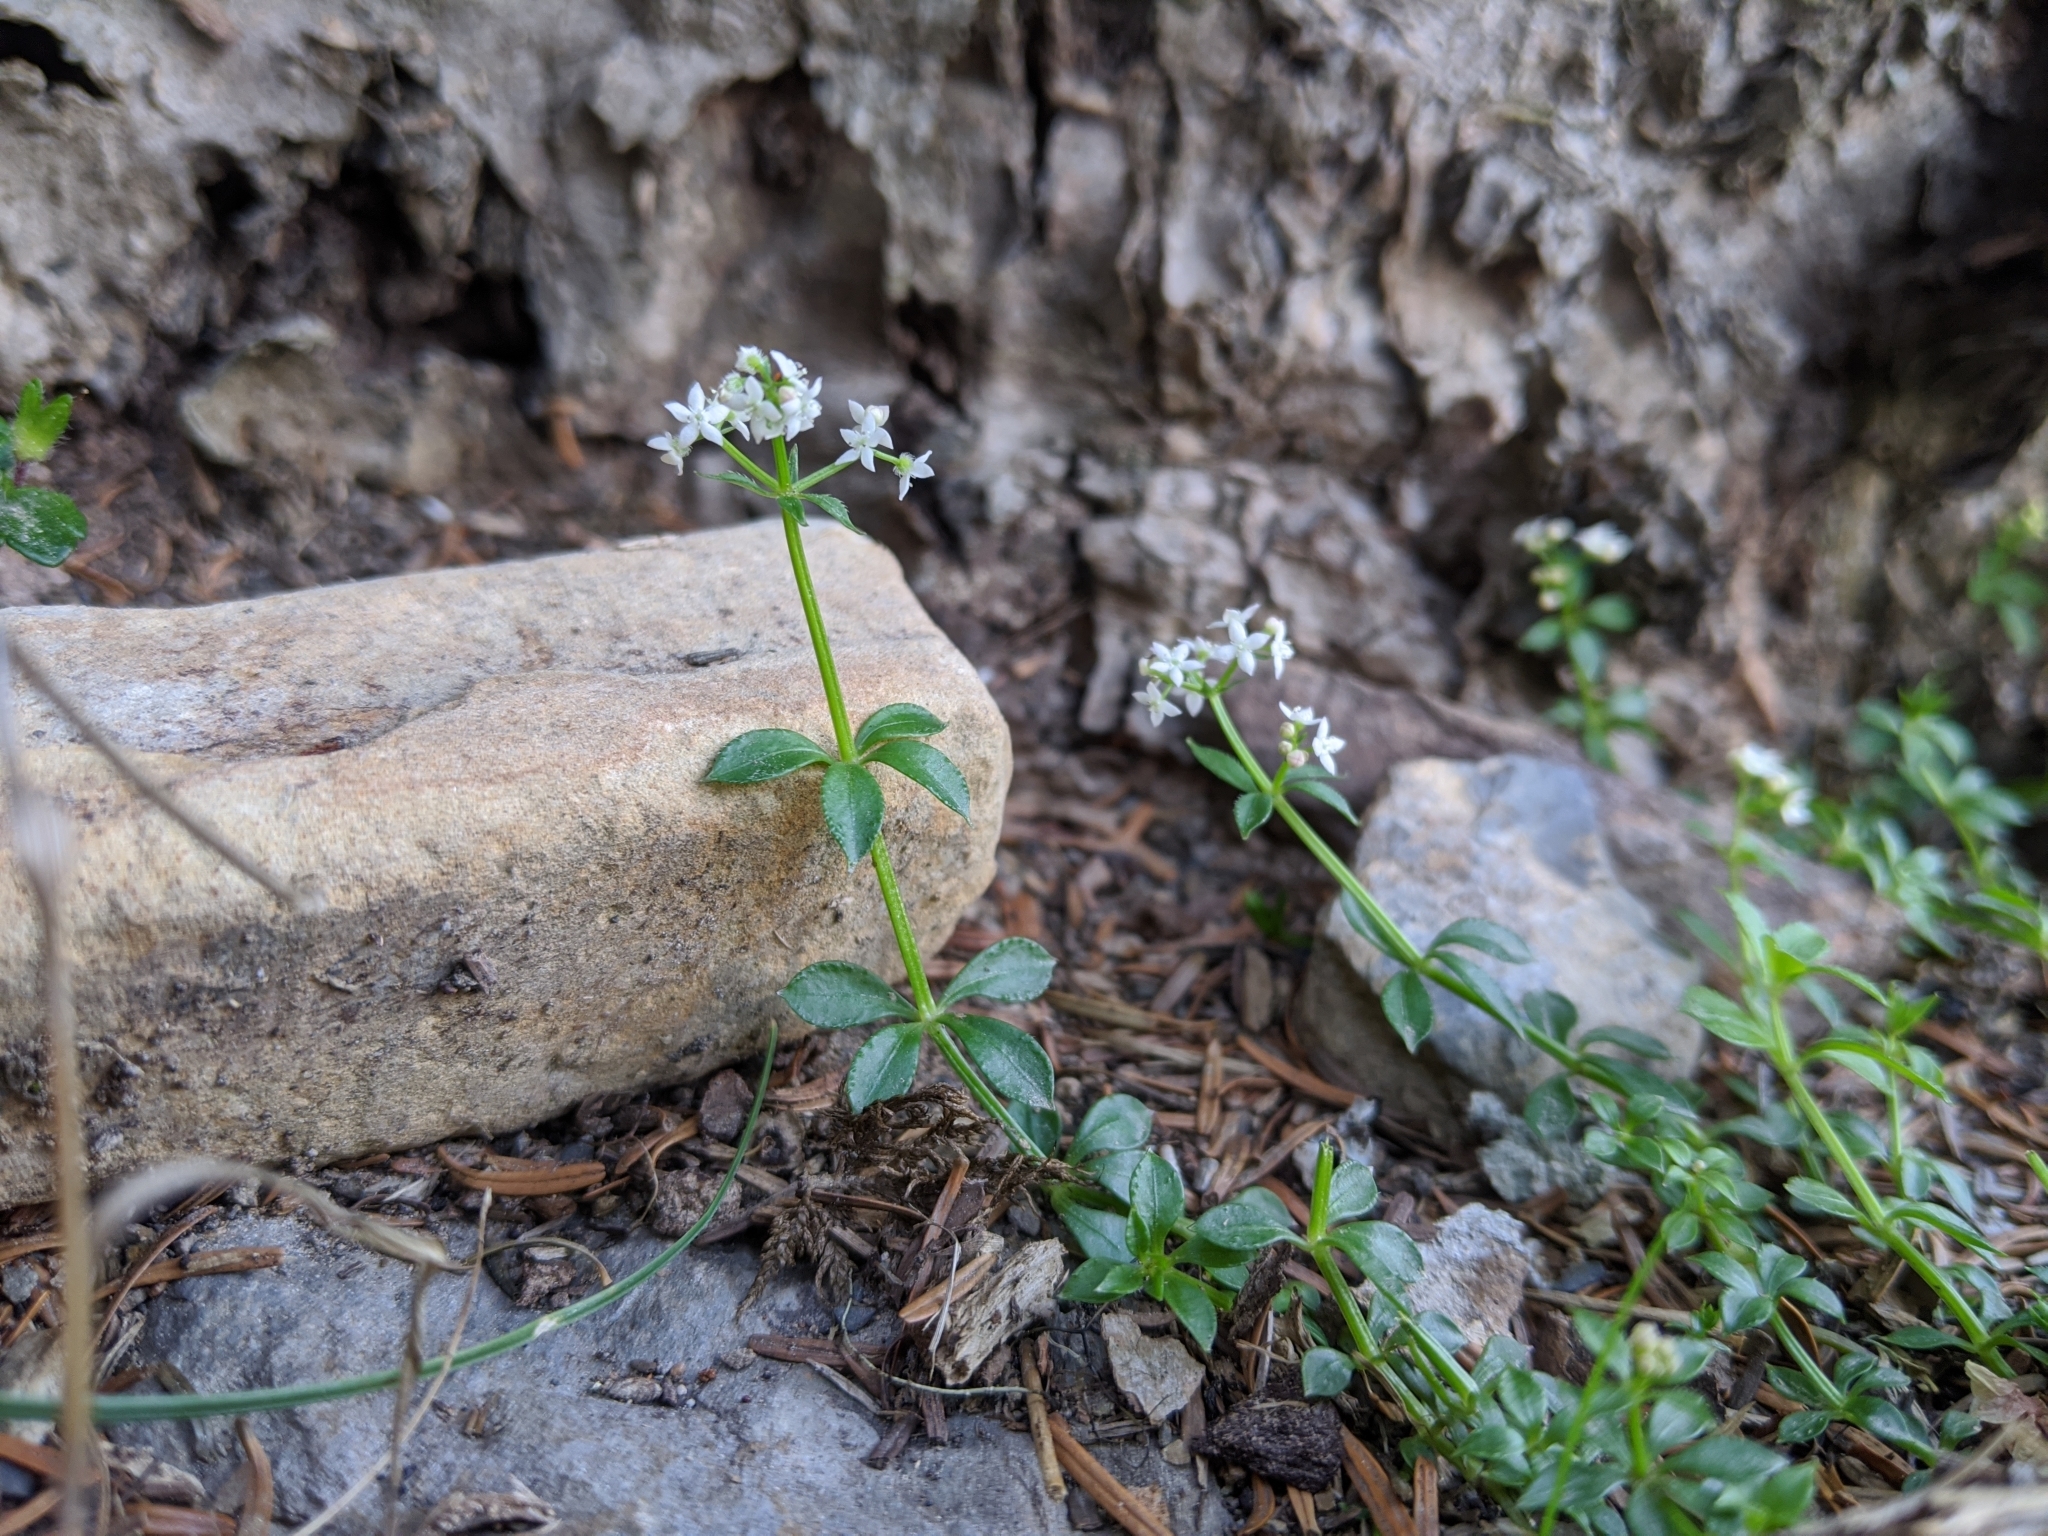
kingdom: Plantae
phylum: Tracheophyta
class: Magnoliopsida
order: Gentianales
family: Rubiaceae
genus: Galium
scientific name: Galium echinocarpum
